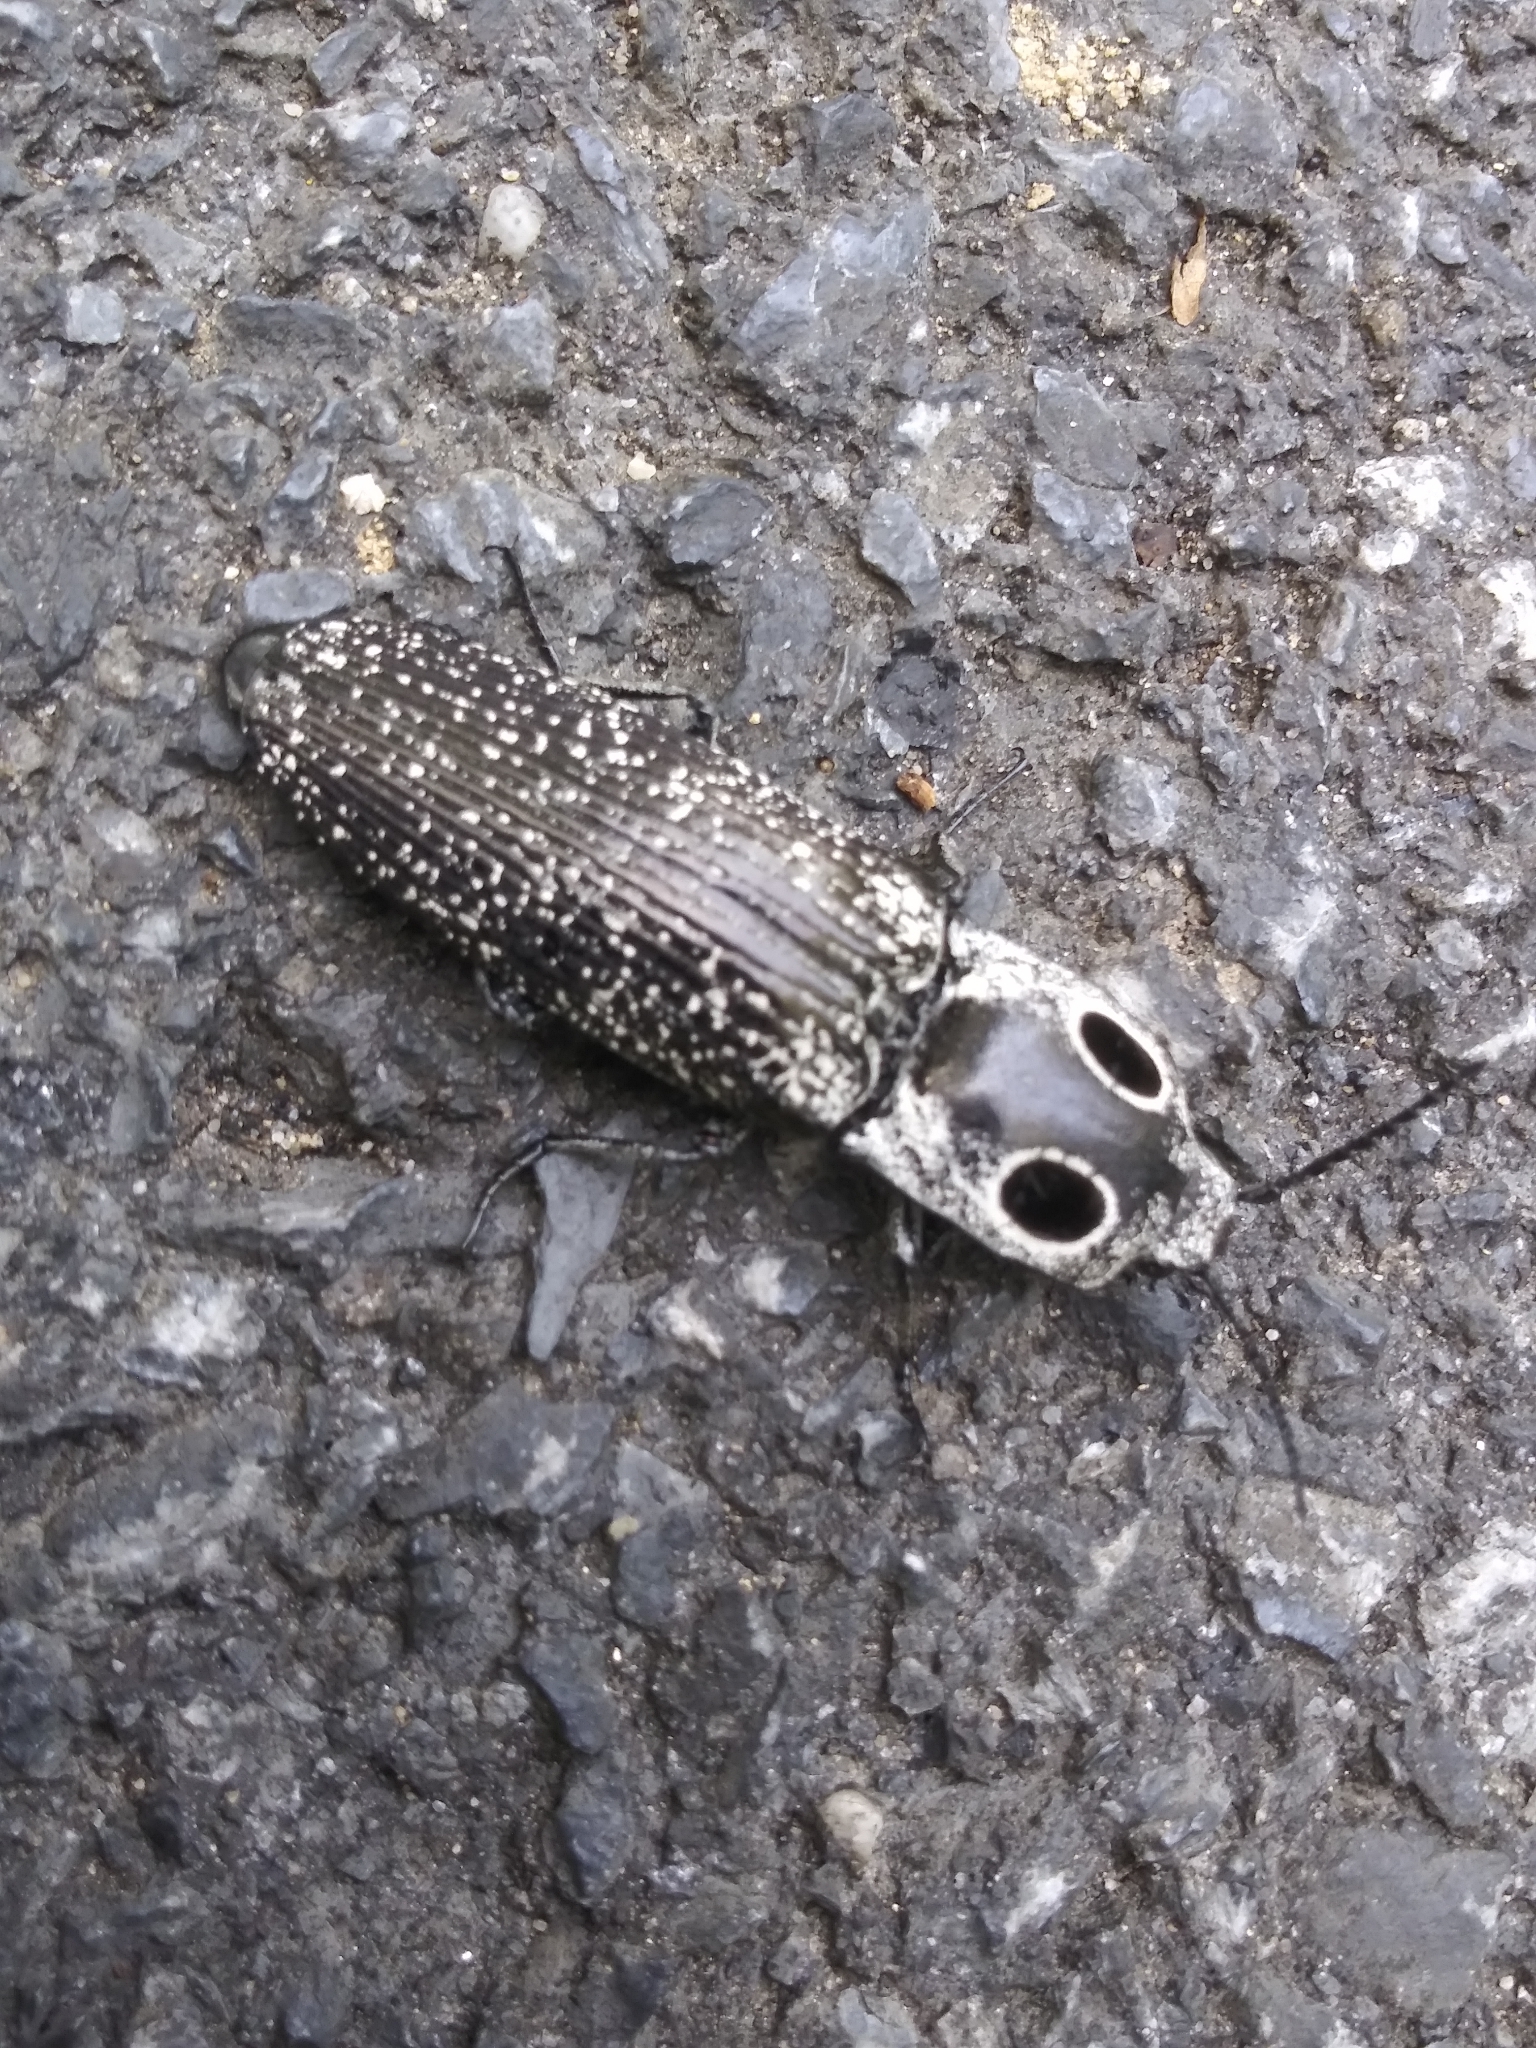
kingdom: Animalia
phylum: Arthropoda
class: Insecta
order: Coleoptera
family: Elateridae
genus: Alaus
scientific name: Alaus oculatus
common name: Eastern eyed click beetle
